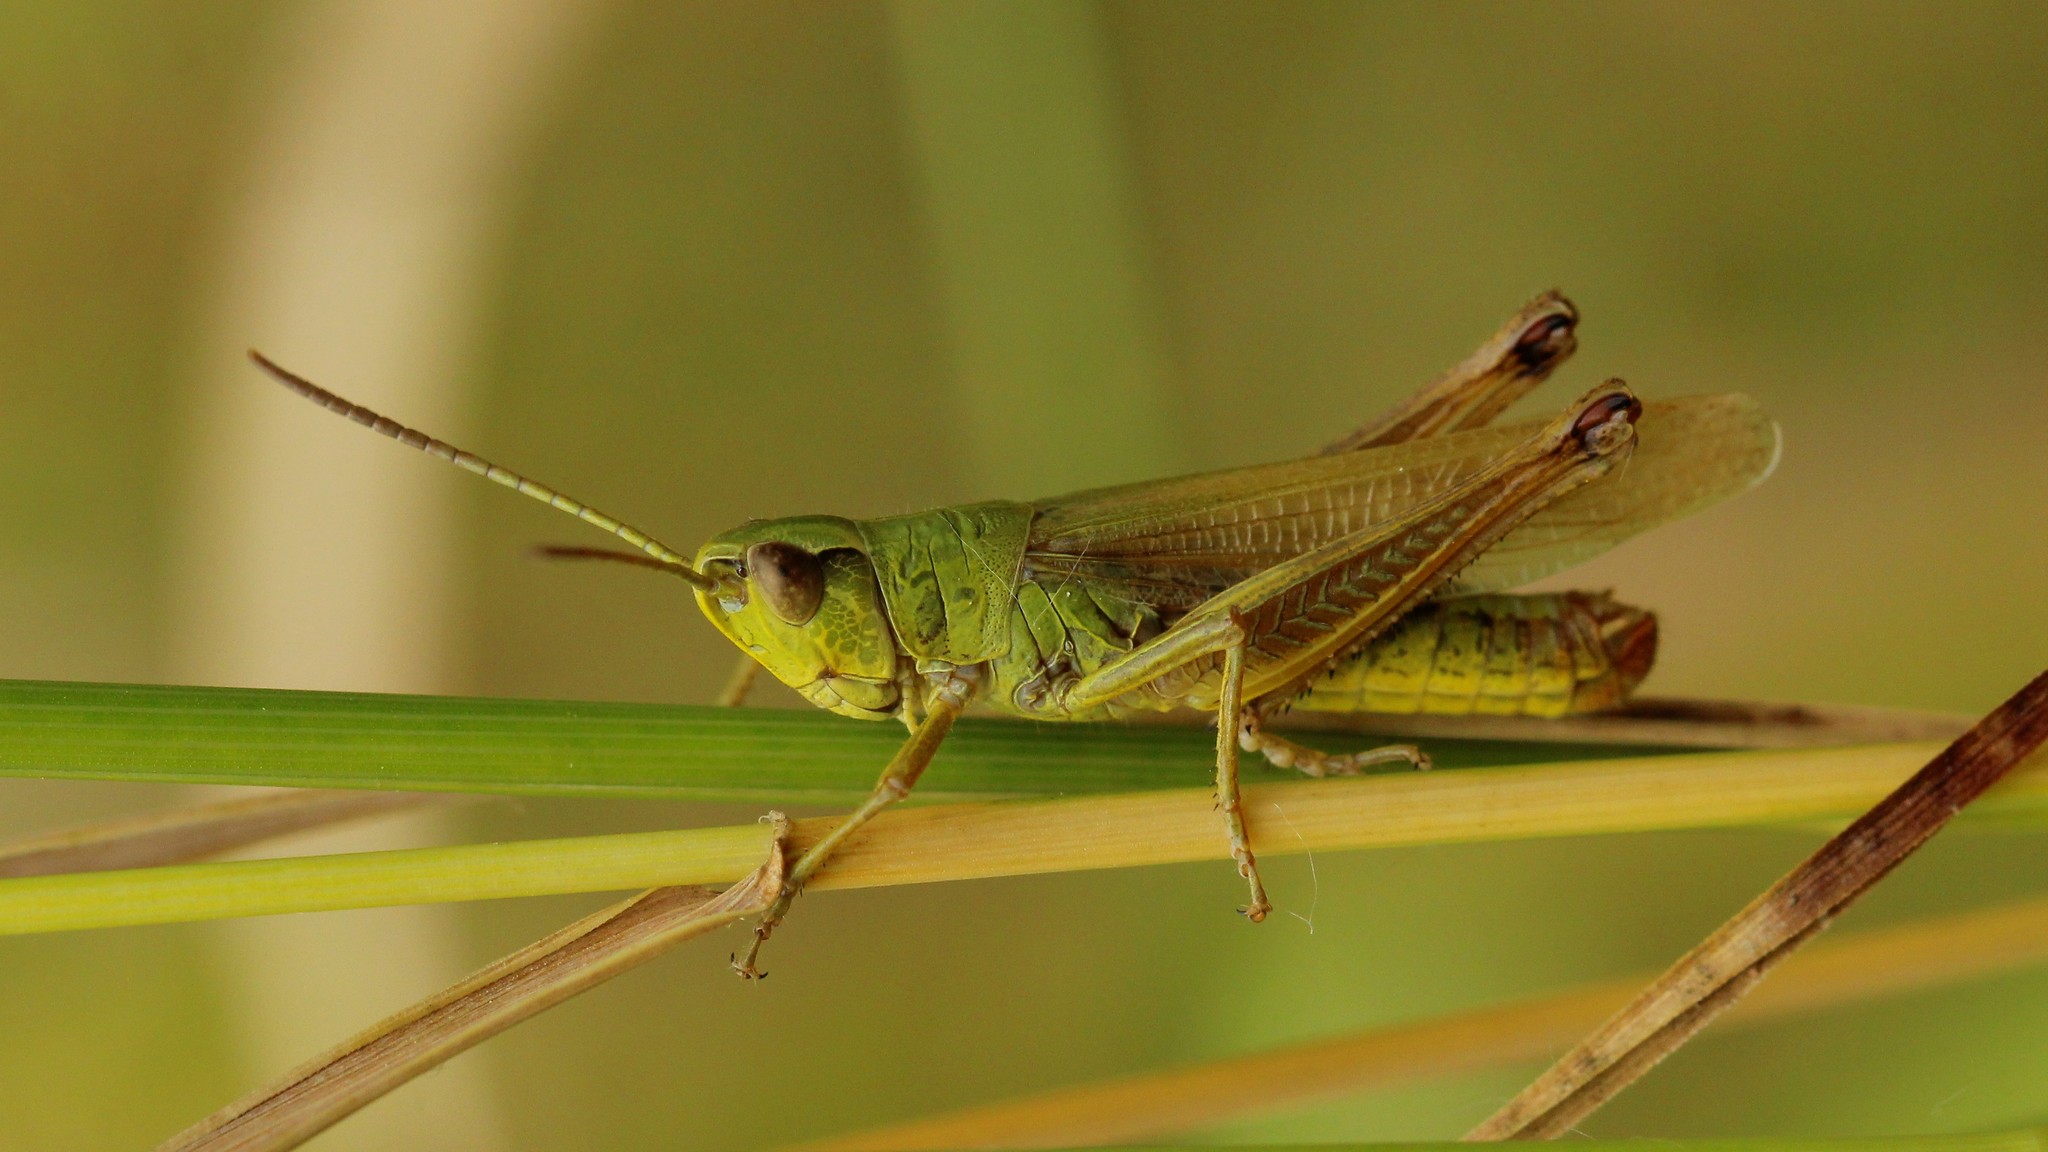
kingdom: Animalia
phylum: Arthropoda
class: Insecta
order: Orthoptera
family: Acrididae
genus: Pseudochorthippus
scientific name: Pseudochorthippus montanus
